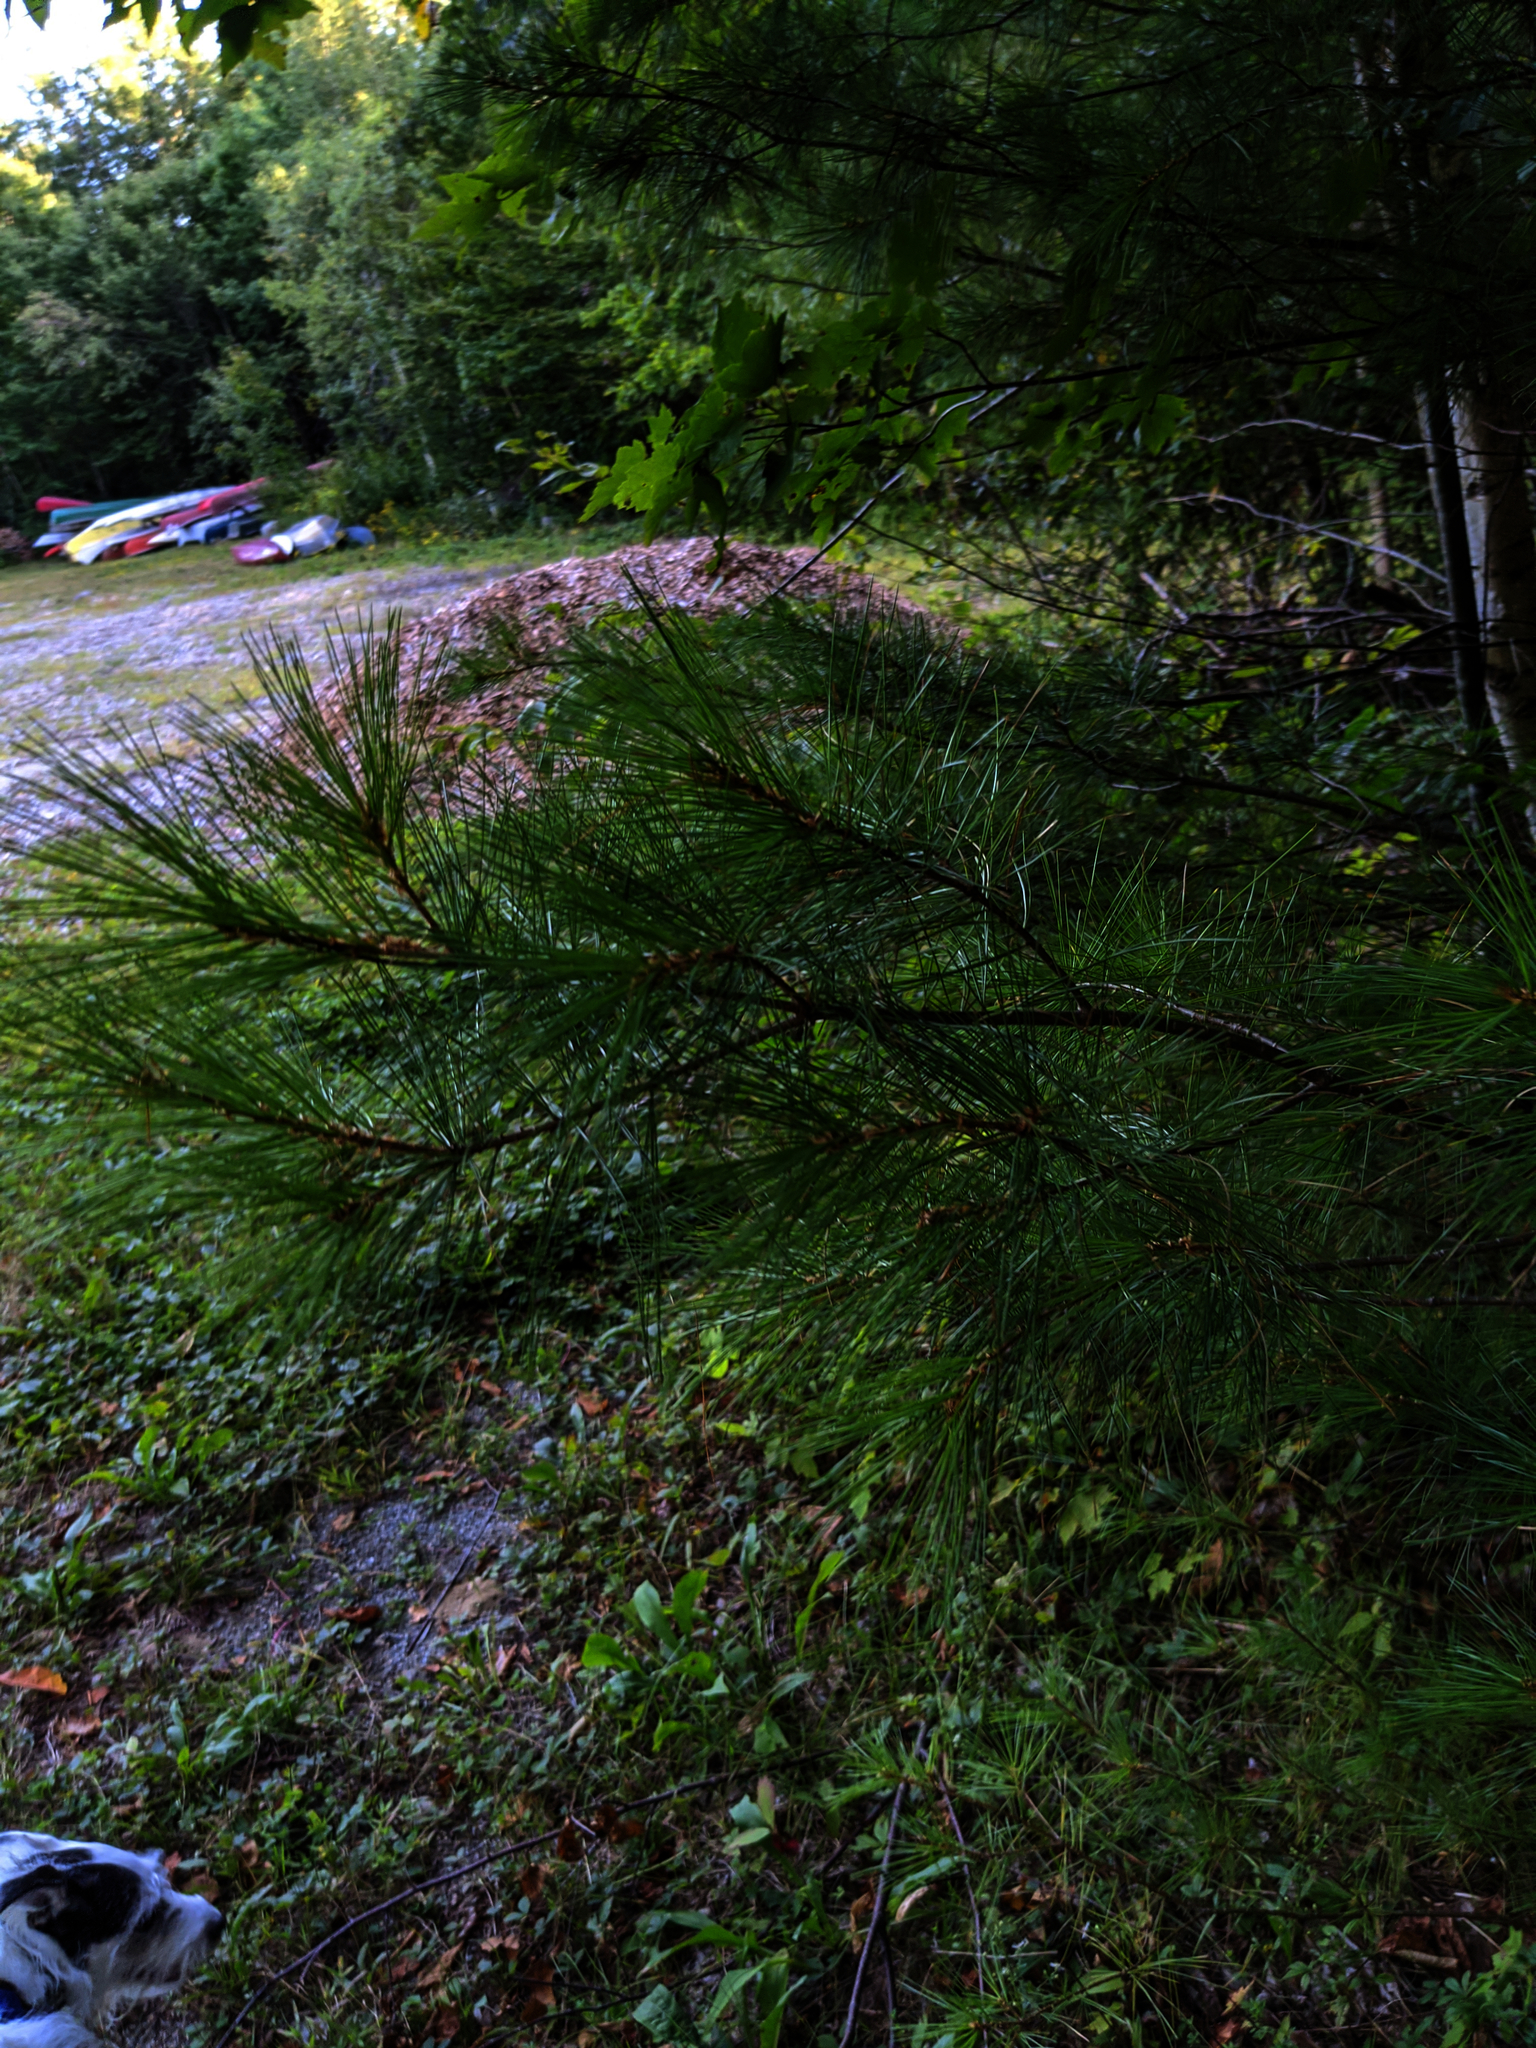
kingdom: Plantae
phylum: Tracheophyta
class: Pinopsida
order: Pinales
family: Pinaceae
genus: Pinus
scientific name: Pinus strobus
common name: Weymouth pine
